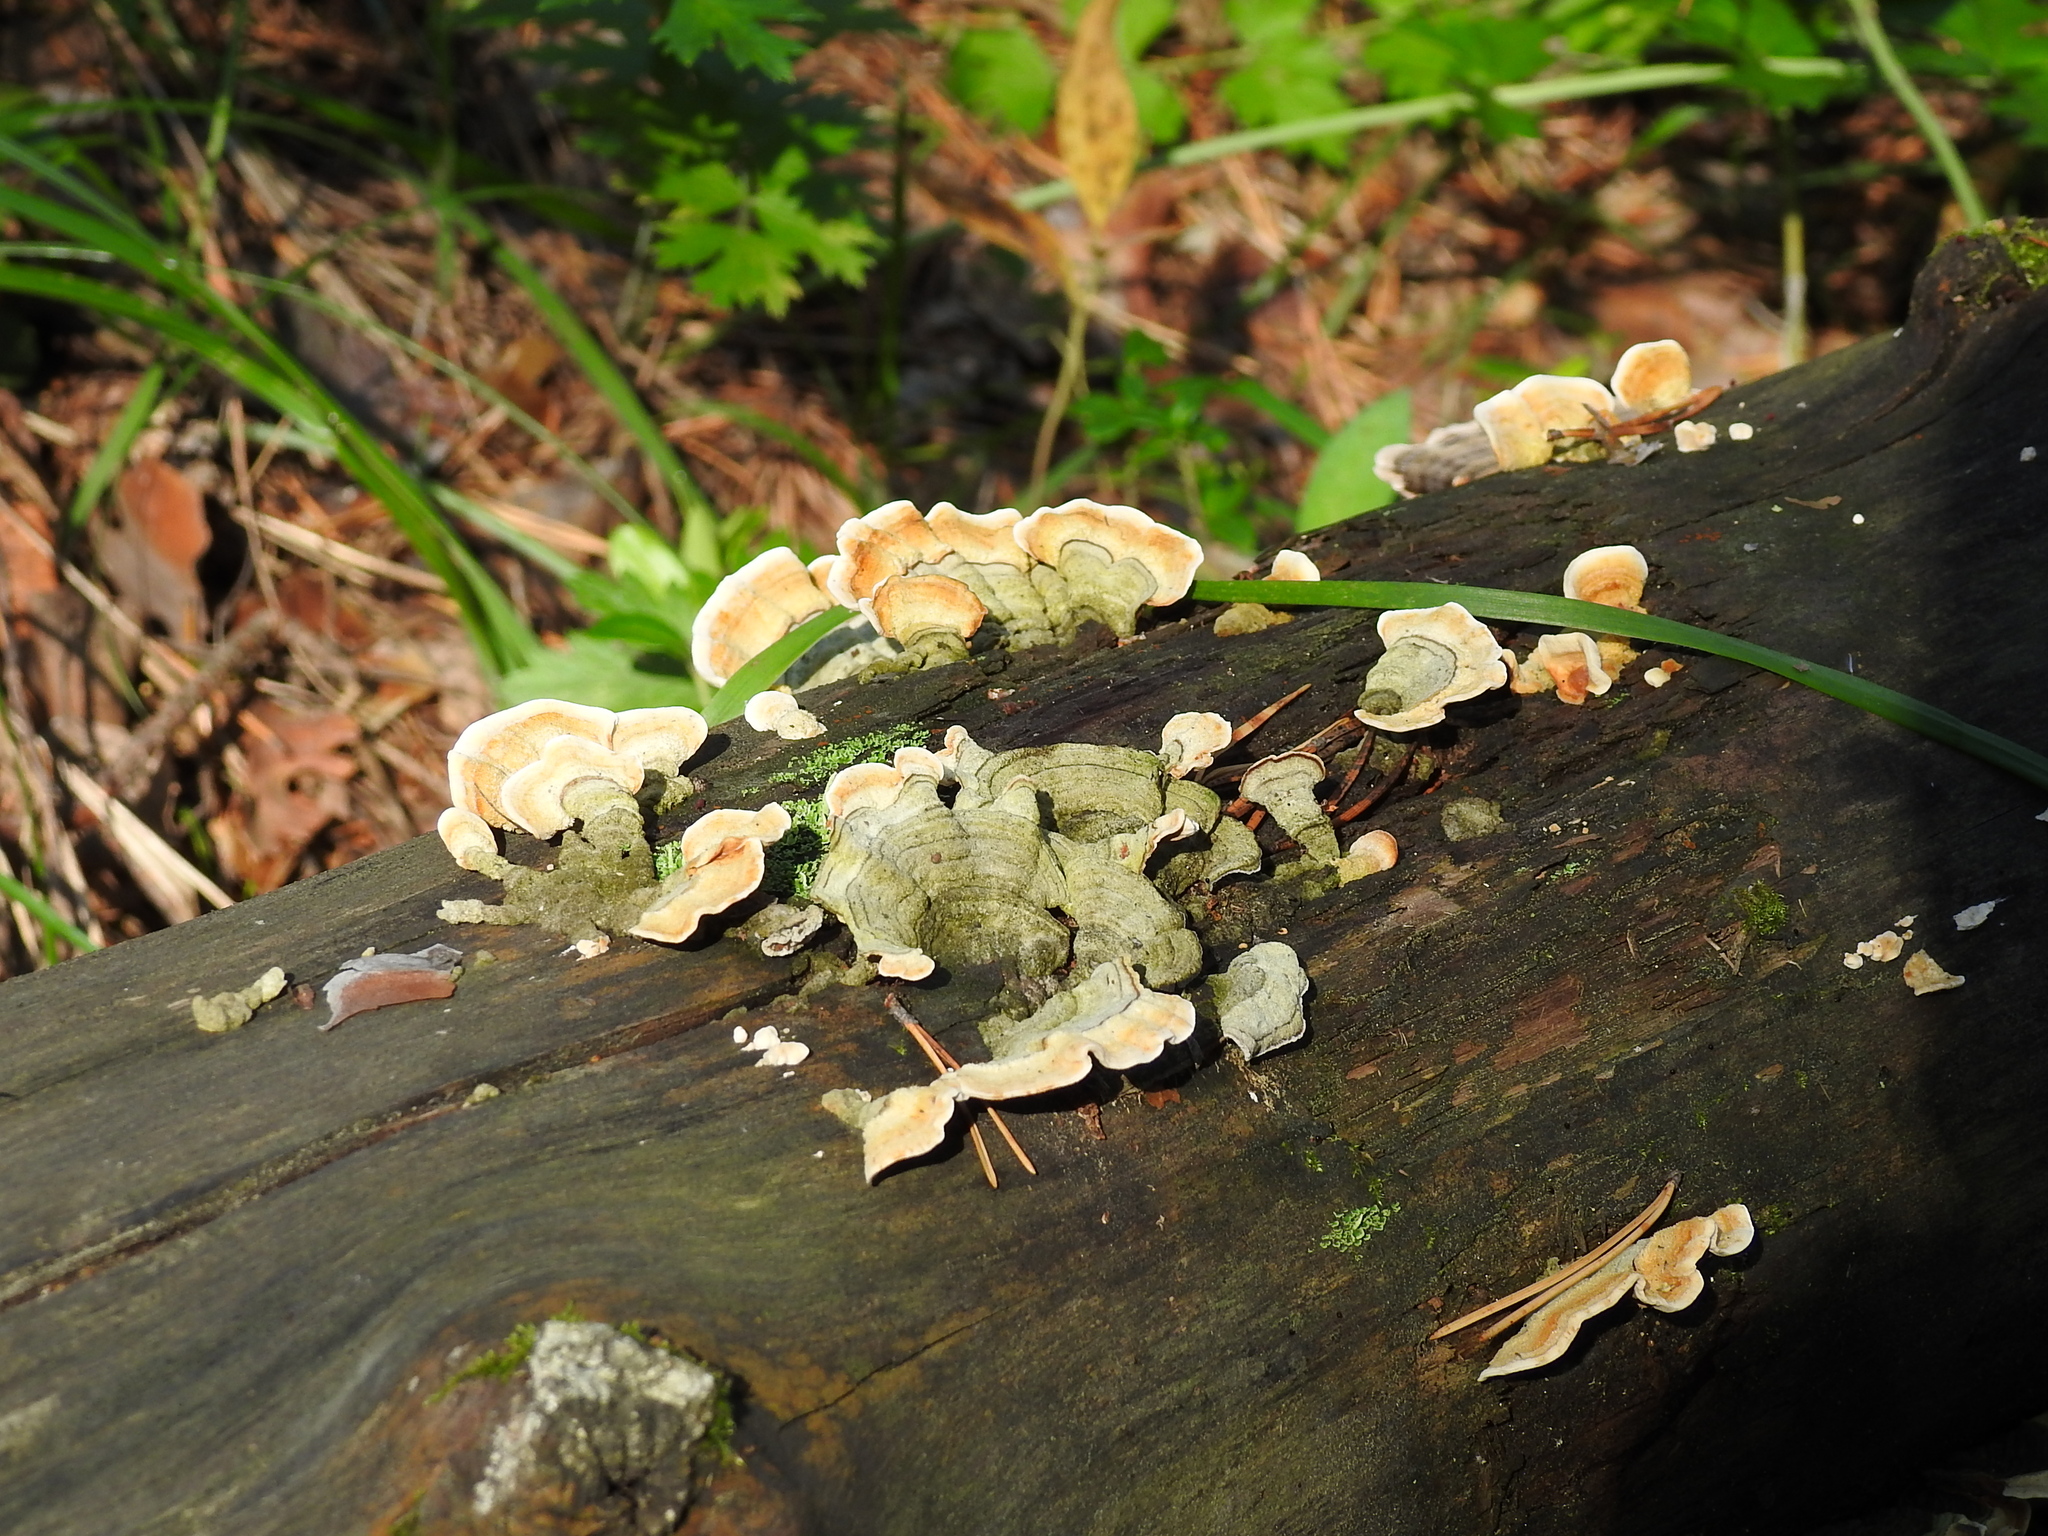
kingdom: Fungi
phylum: Basidiomycota
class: Agaricomycetes
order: Russulales
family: Stereaceae
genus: Stereum
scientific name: Stereum hirsutum
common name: Hairy curtain crust
